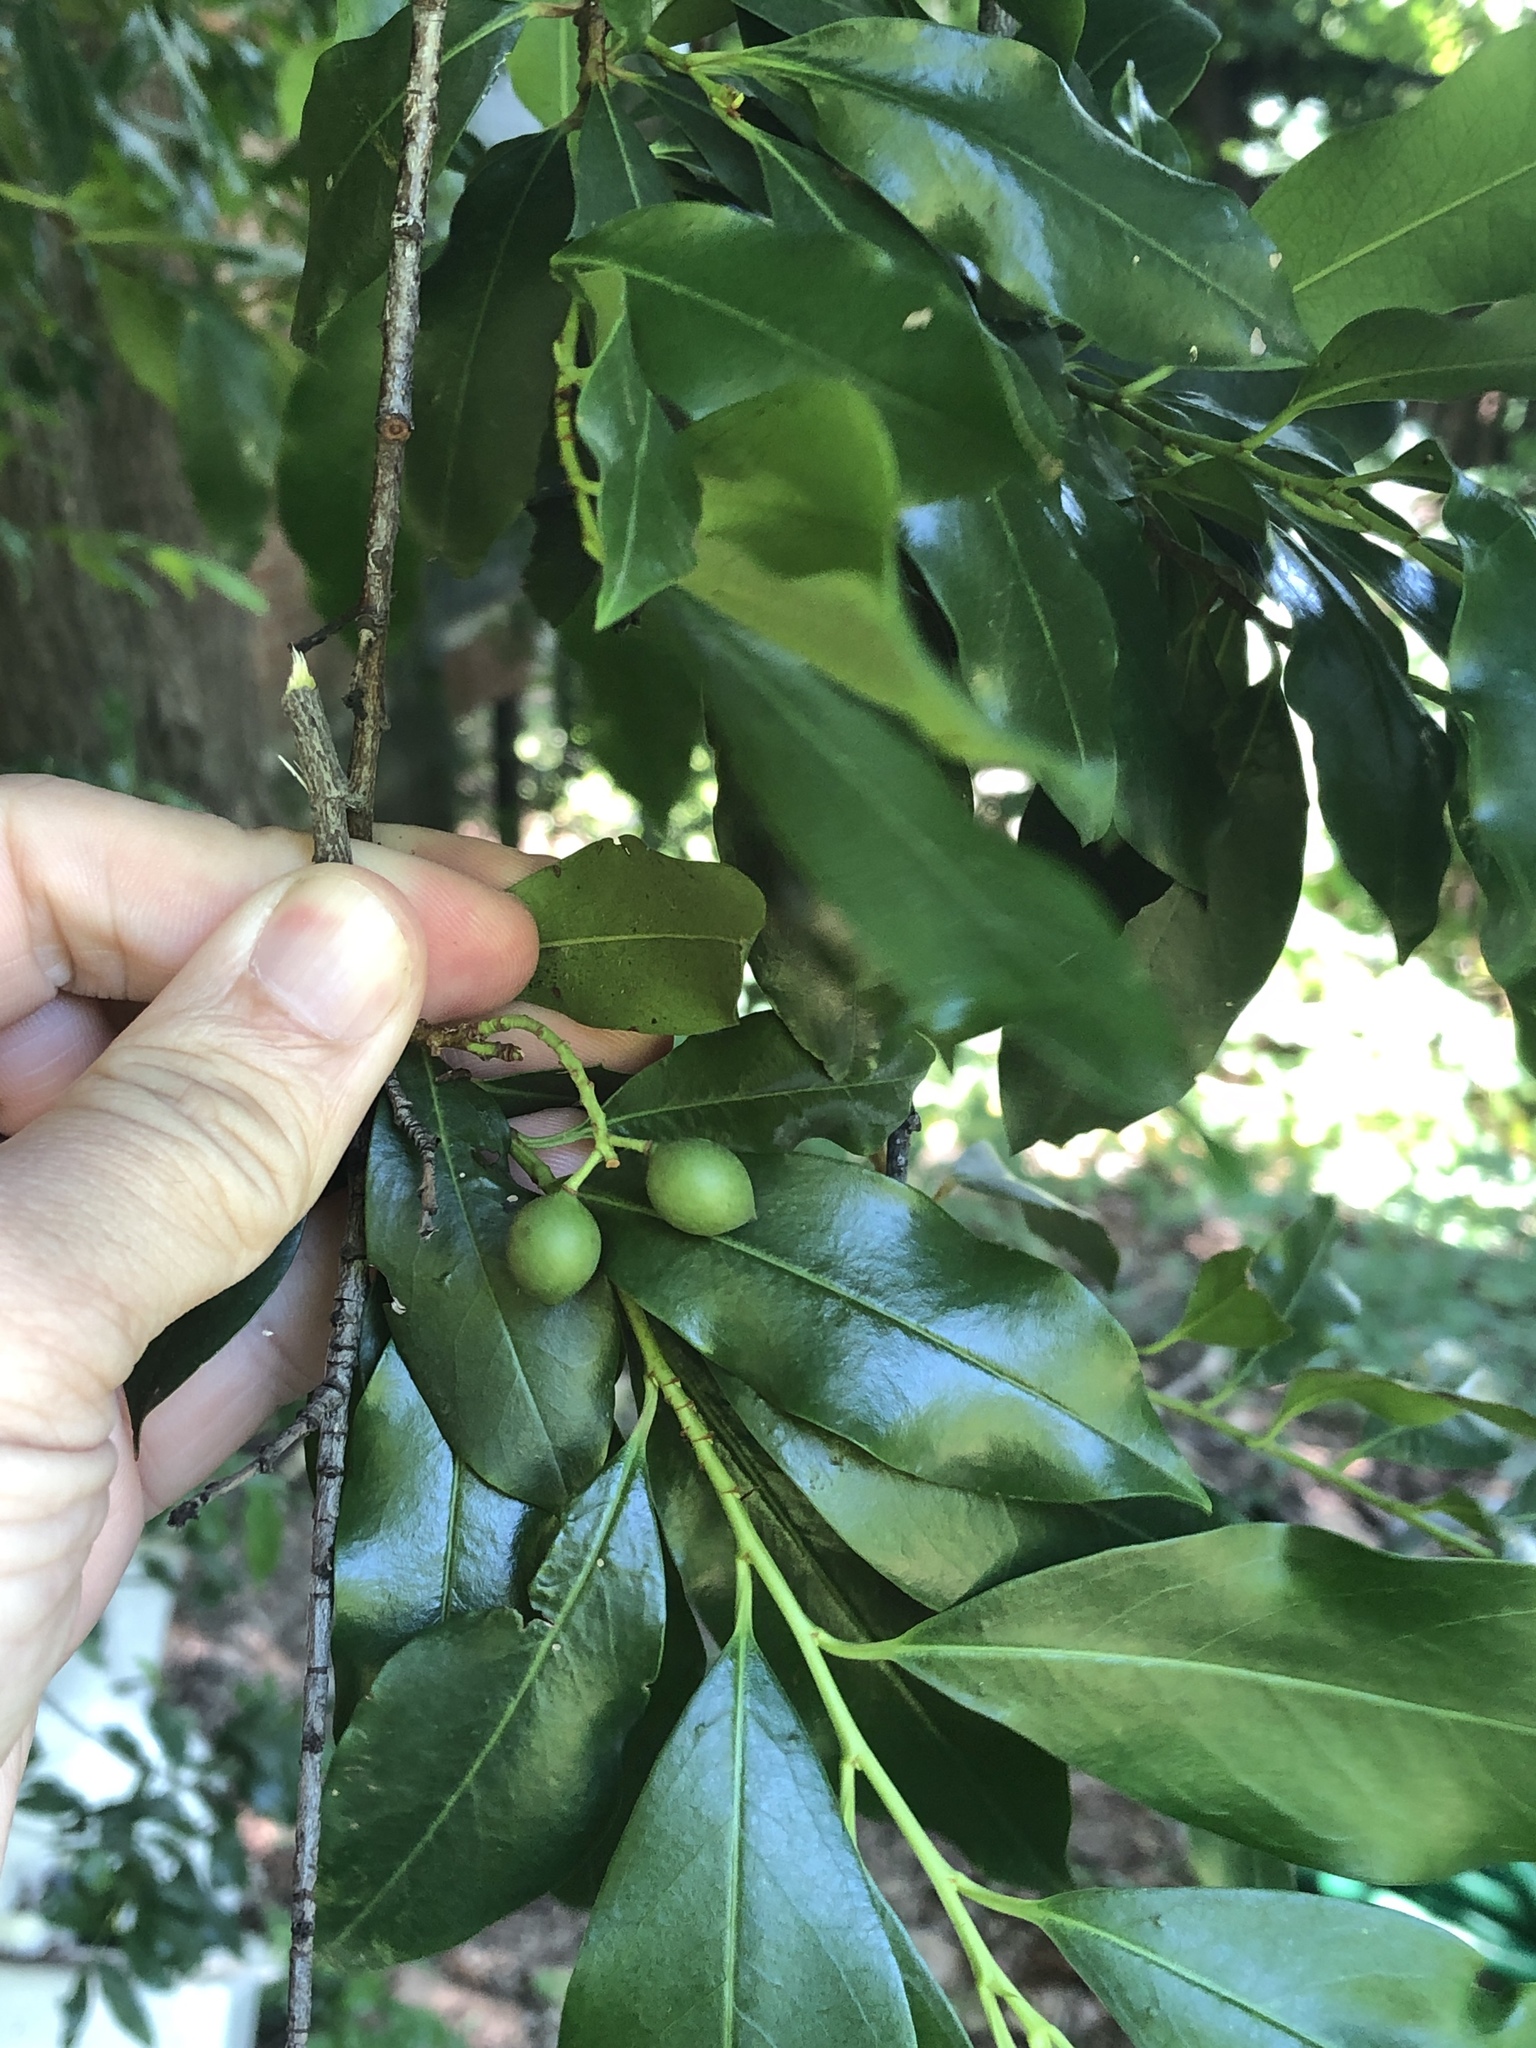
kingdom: Plantae
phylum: Tracheophyta
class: Magnoliopsida
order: Rosales
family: Rosaceae
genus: Prunus
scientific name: Prunus caroliniana
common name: Carolina laurel cherry
